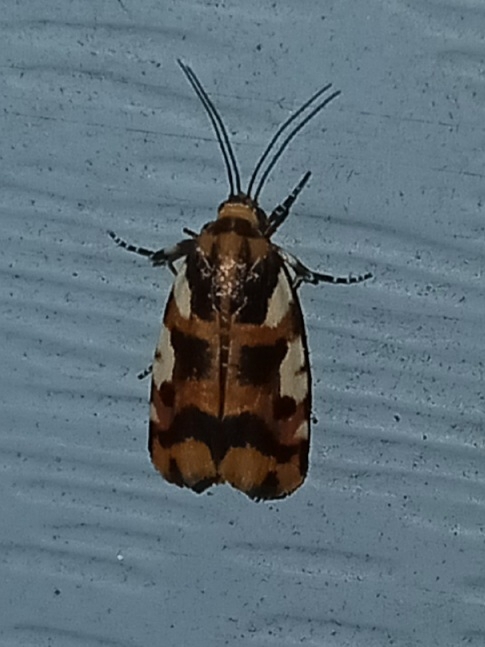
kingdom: Animalia
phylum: Arthropoda
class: Insecta
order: Lepidoptera
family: Noctuidae
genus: Acontia
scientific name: Acontia dama
